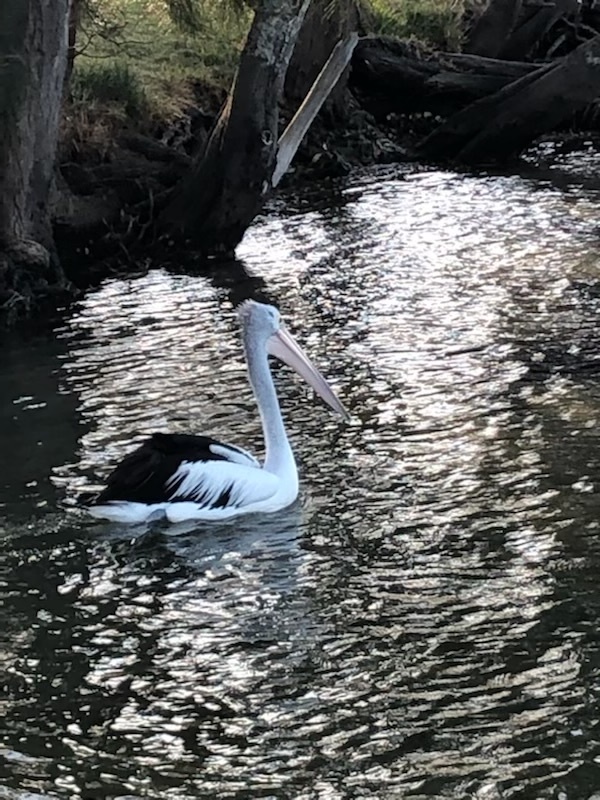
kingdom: Animalia
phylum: Chordata
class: Aves
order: Pelecaniformes
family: Pelecanidae
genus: Pelecanus
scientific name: Pelecanus conspicillatus
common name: Australian pelican
